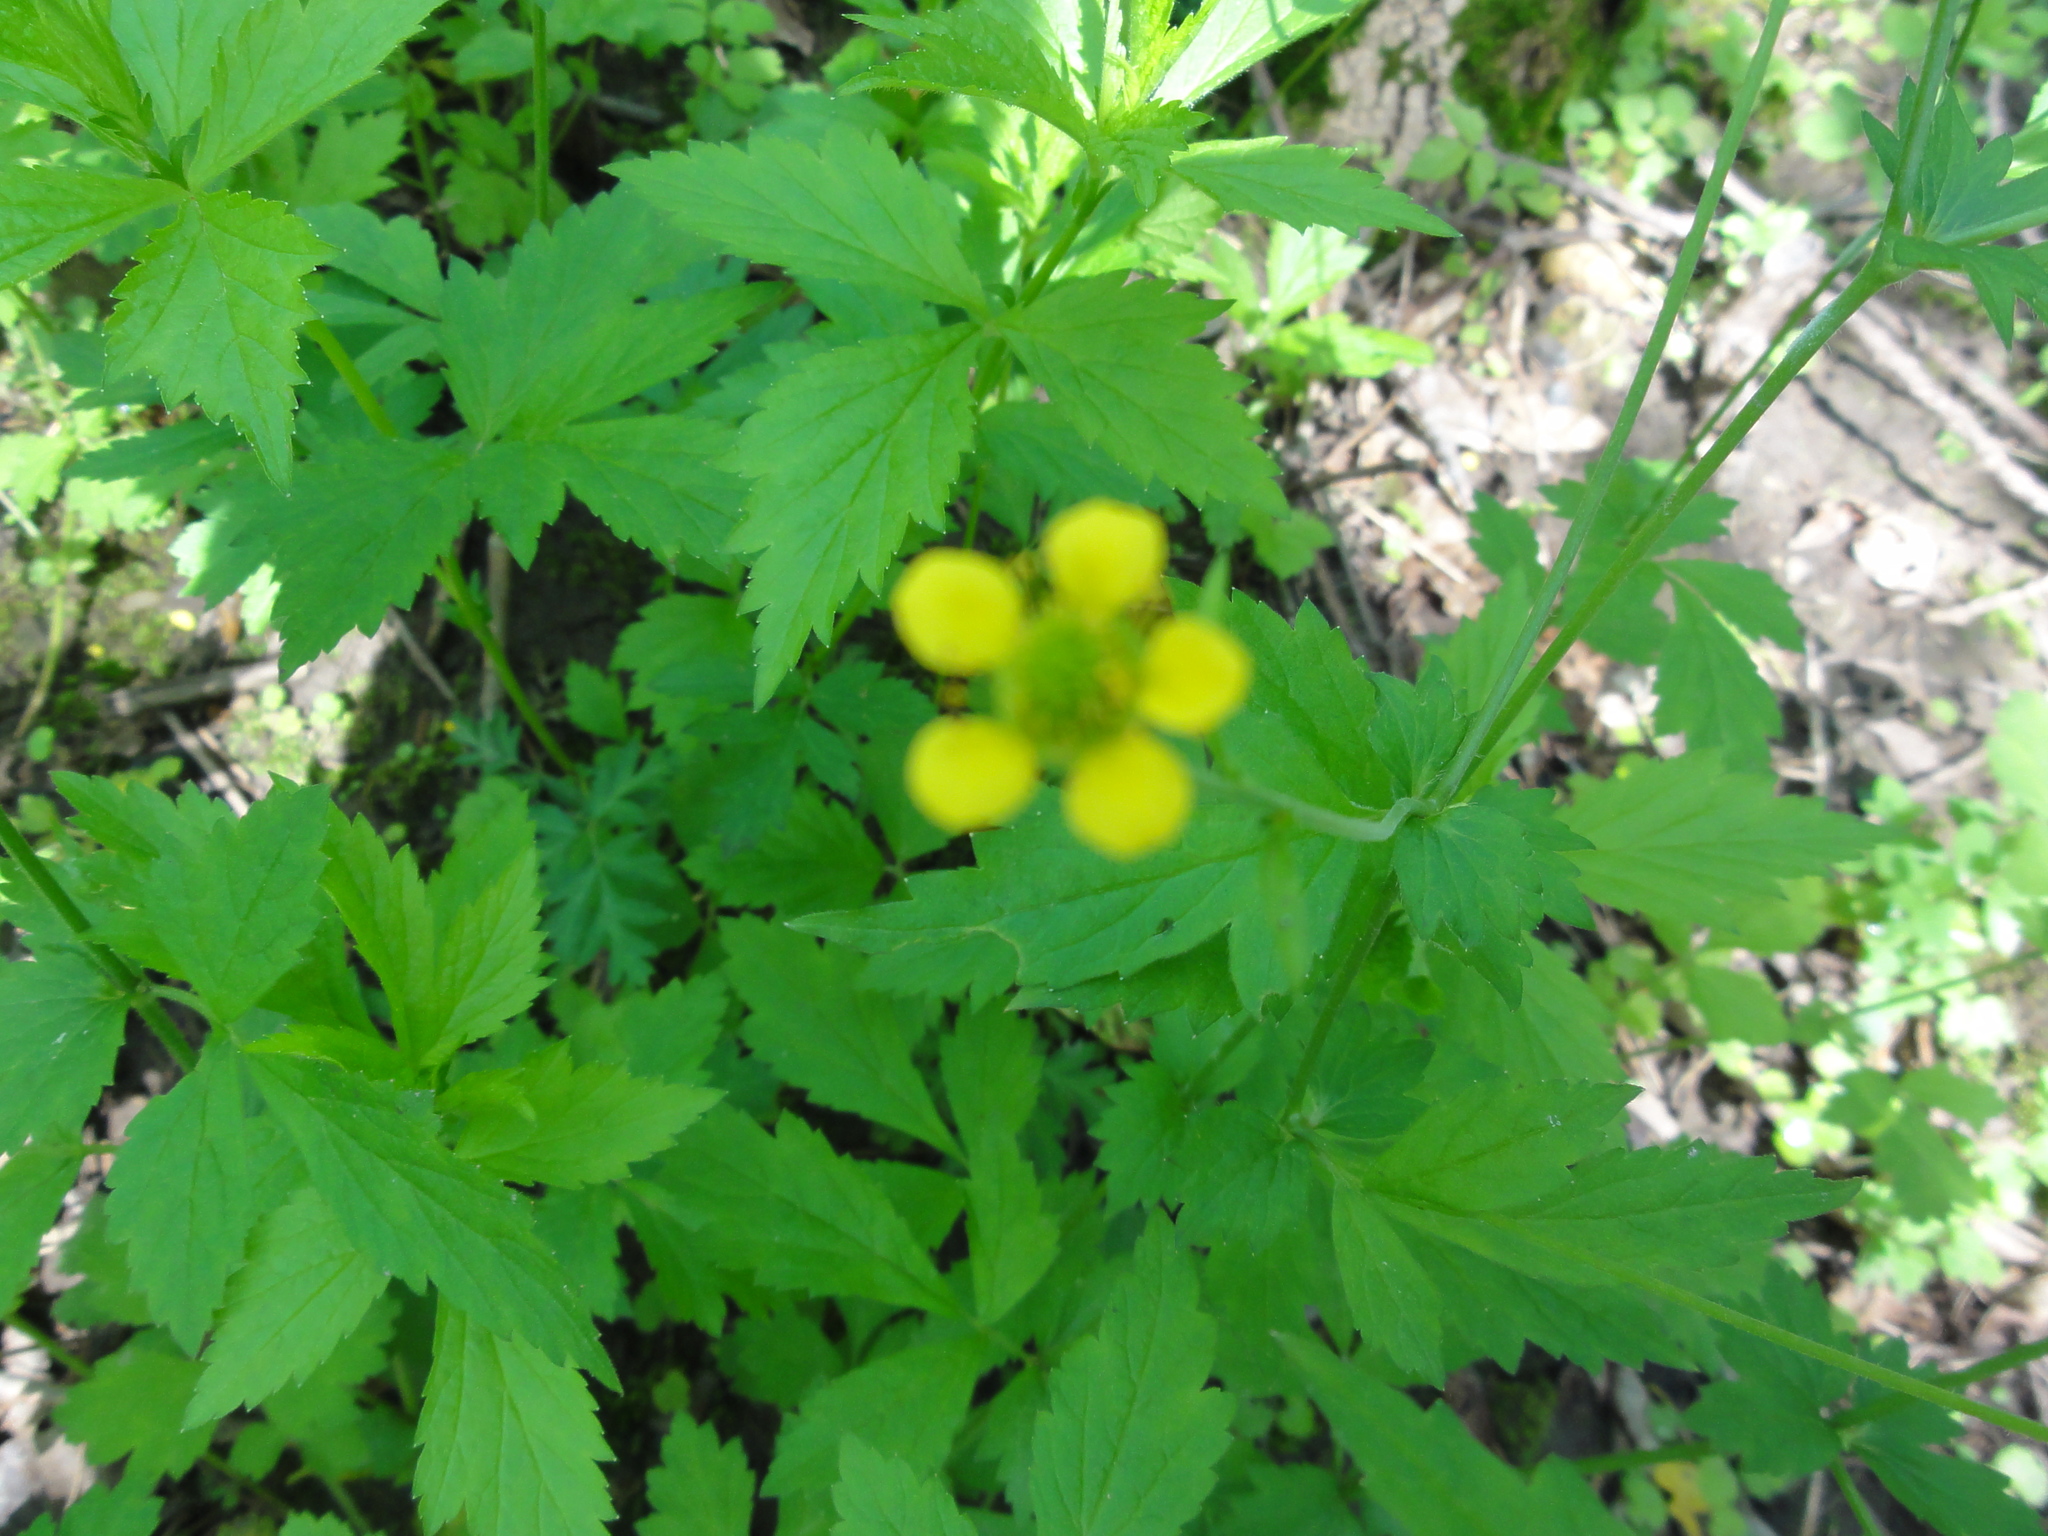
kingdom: Plantae
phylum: Tracheophyta
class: Magnoliopsida
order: Rosales
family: Rosaceae
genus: Geum
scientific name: Geum urbanum
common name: Wood avens
